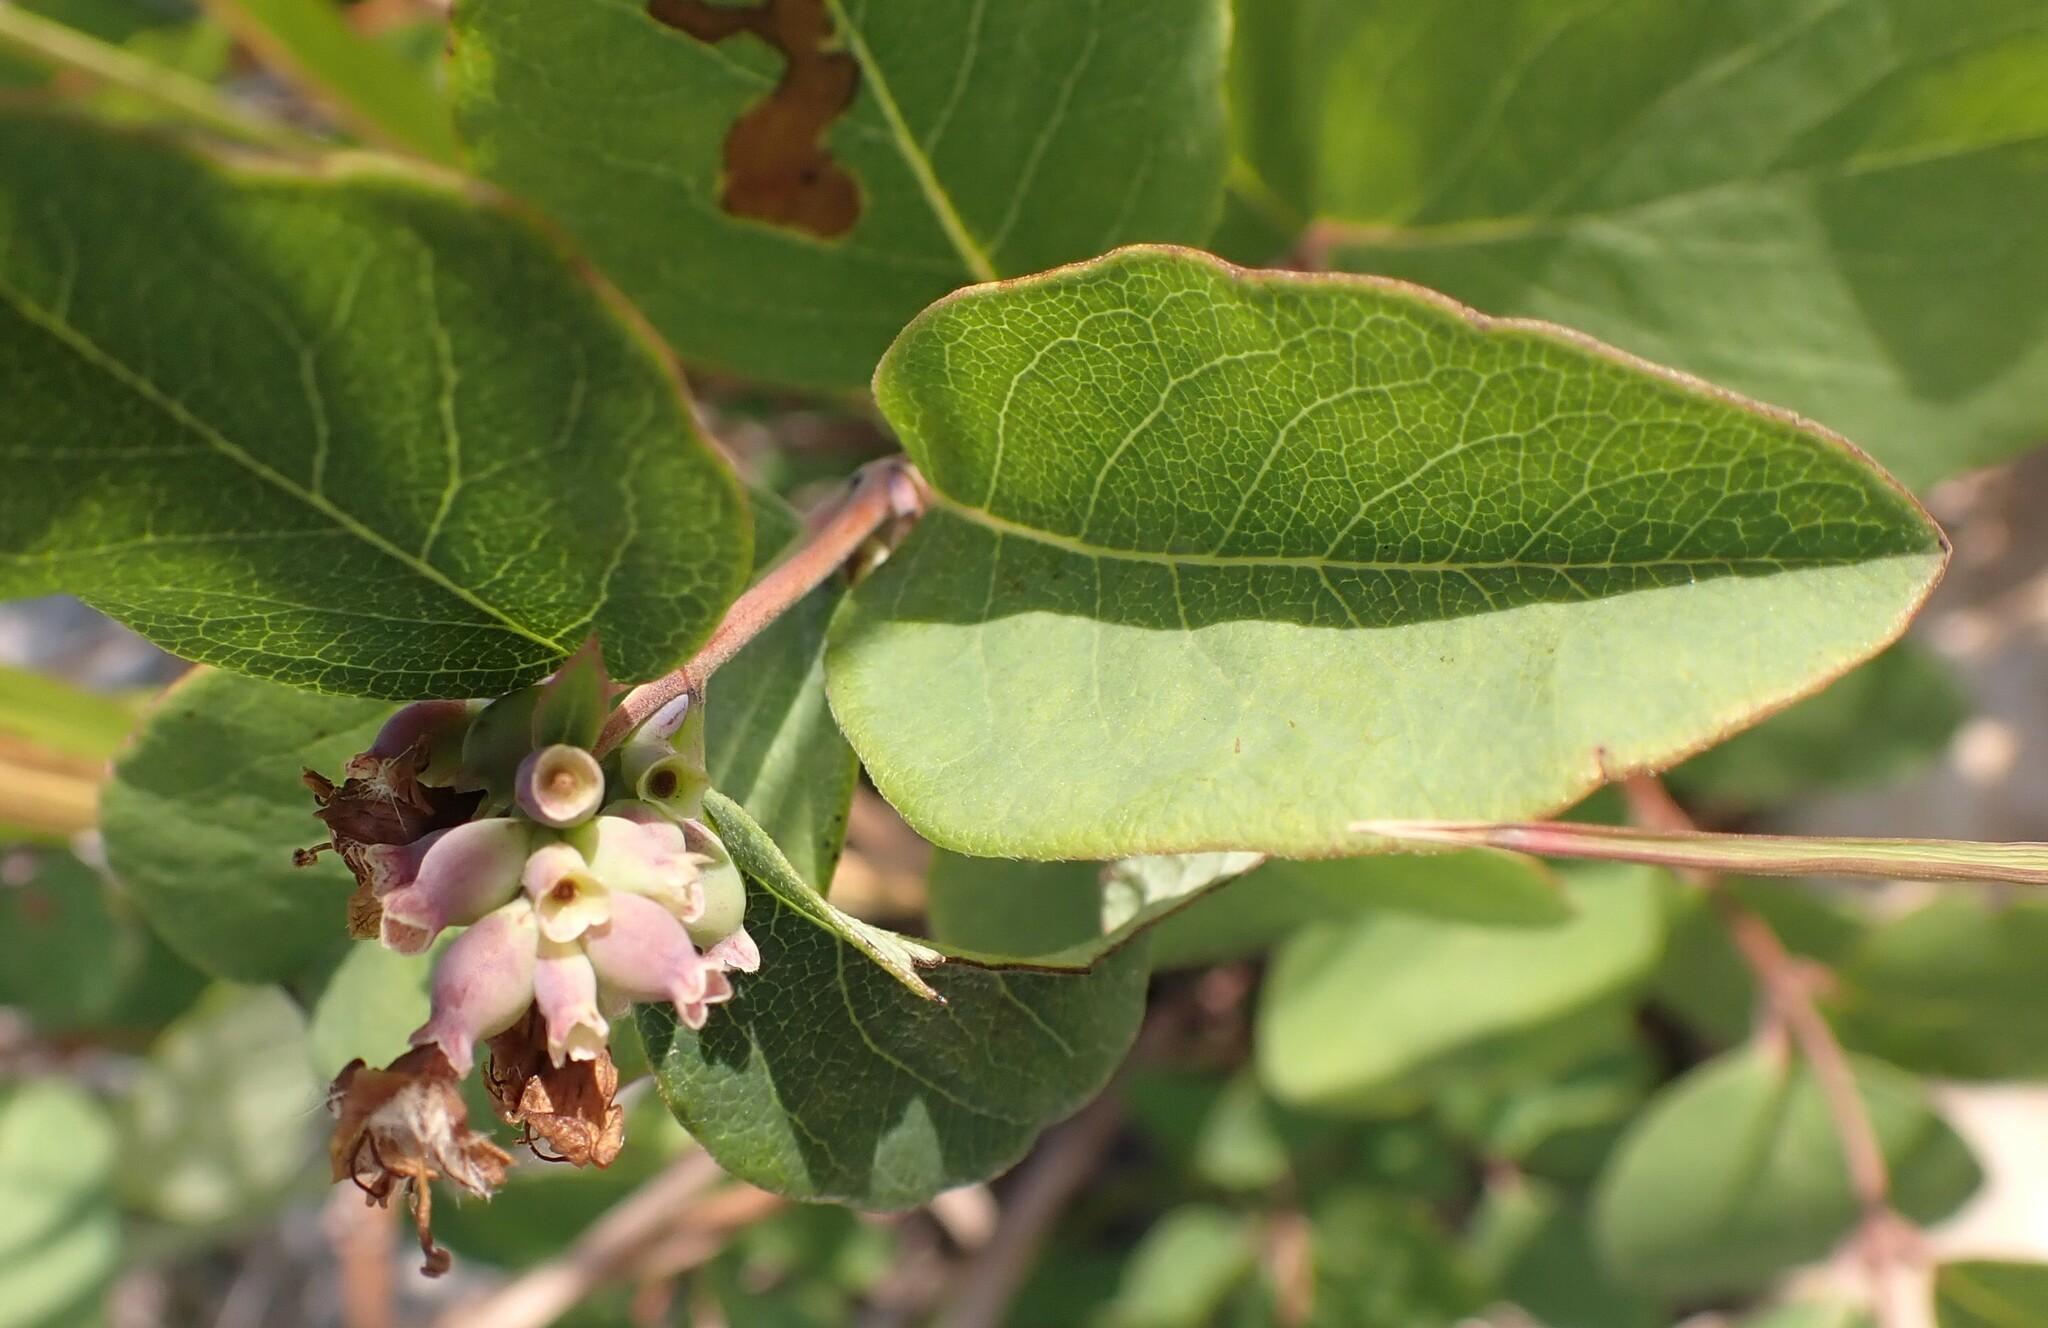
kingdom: Plantae
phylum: Tracheophyta
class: Magnoliopsida
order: Dipsacales
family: Caprifoliaceae
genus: Symphoricarpos
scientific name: Symphoricarpos occidentalis
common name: Wolfberry
